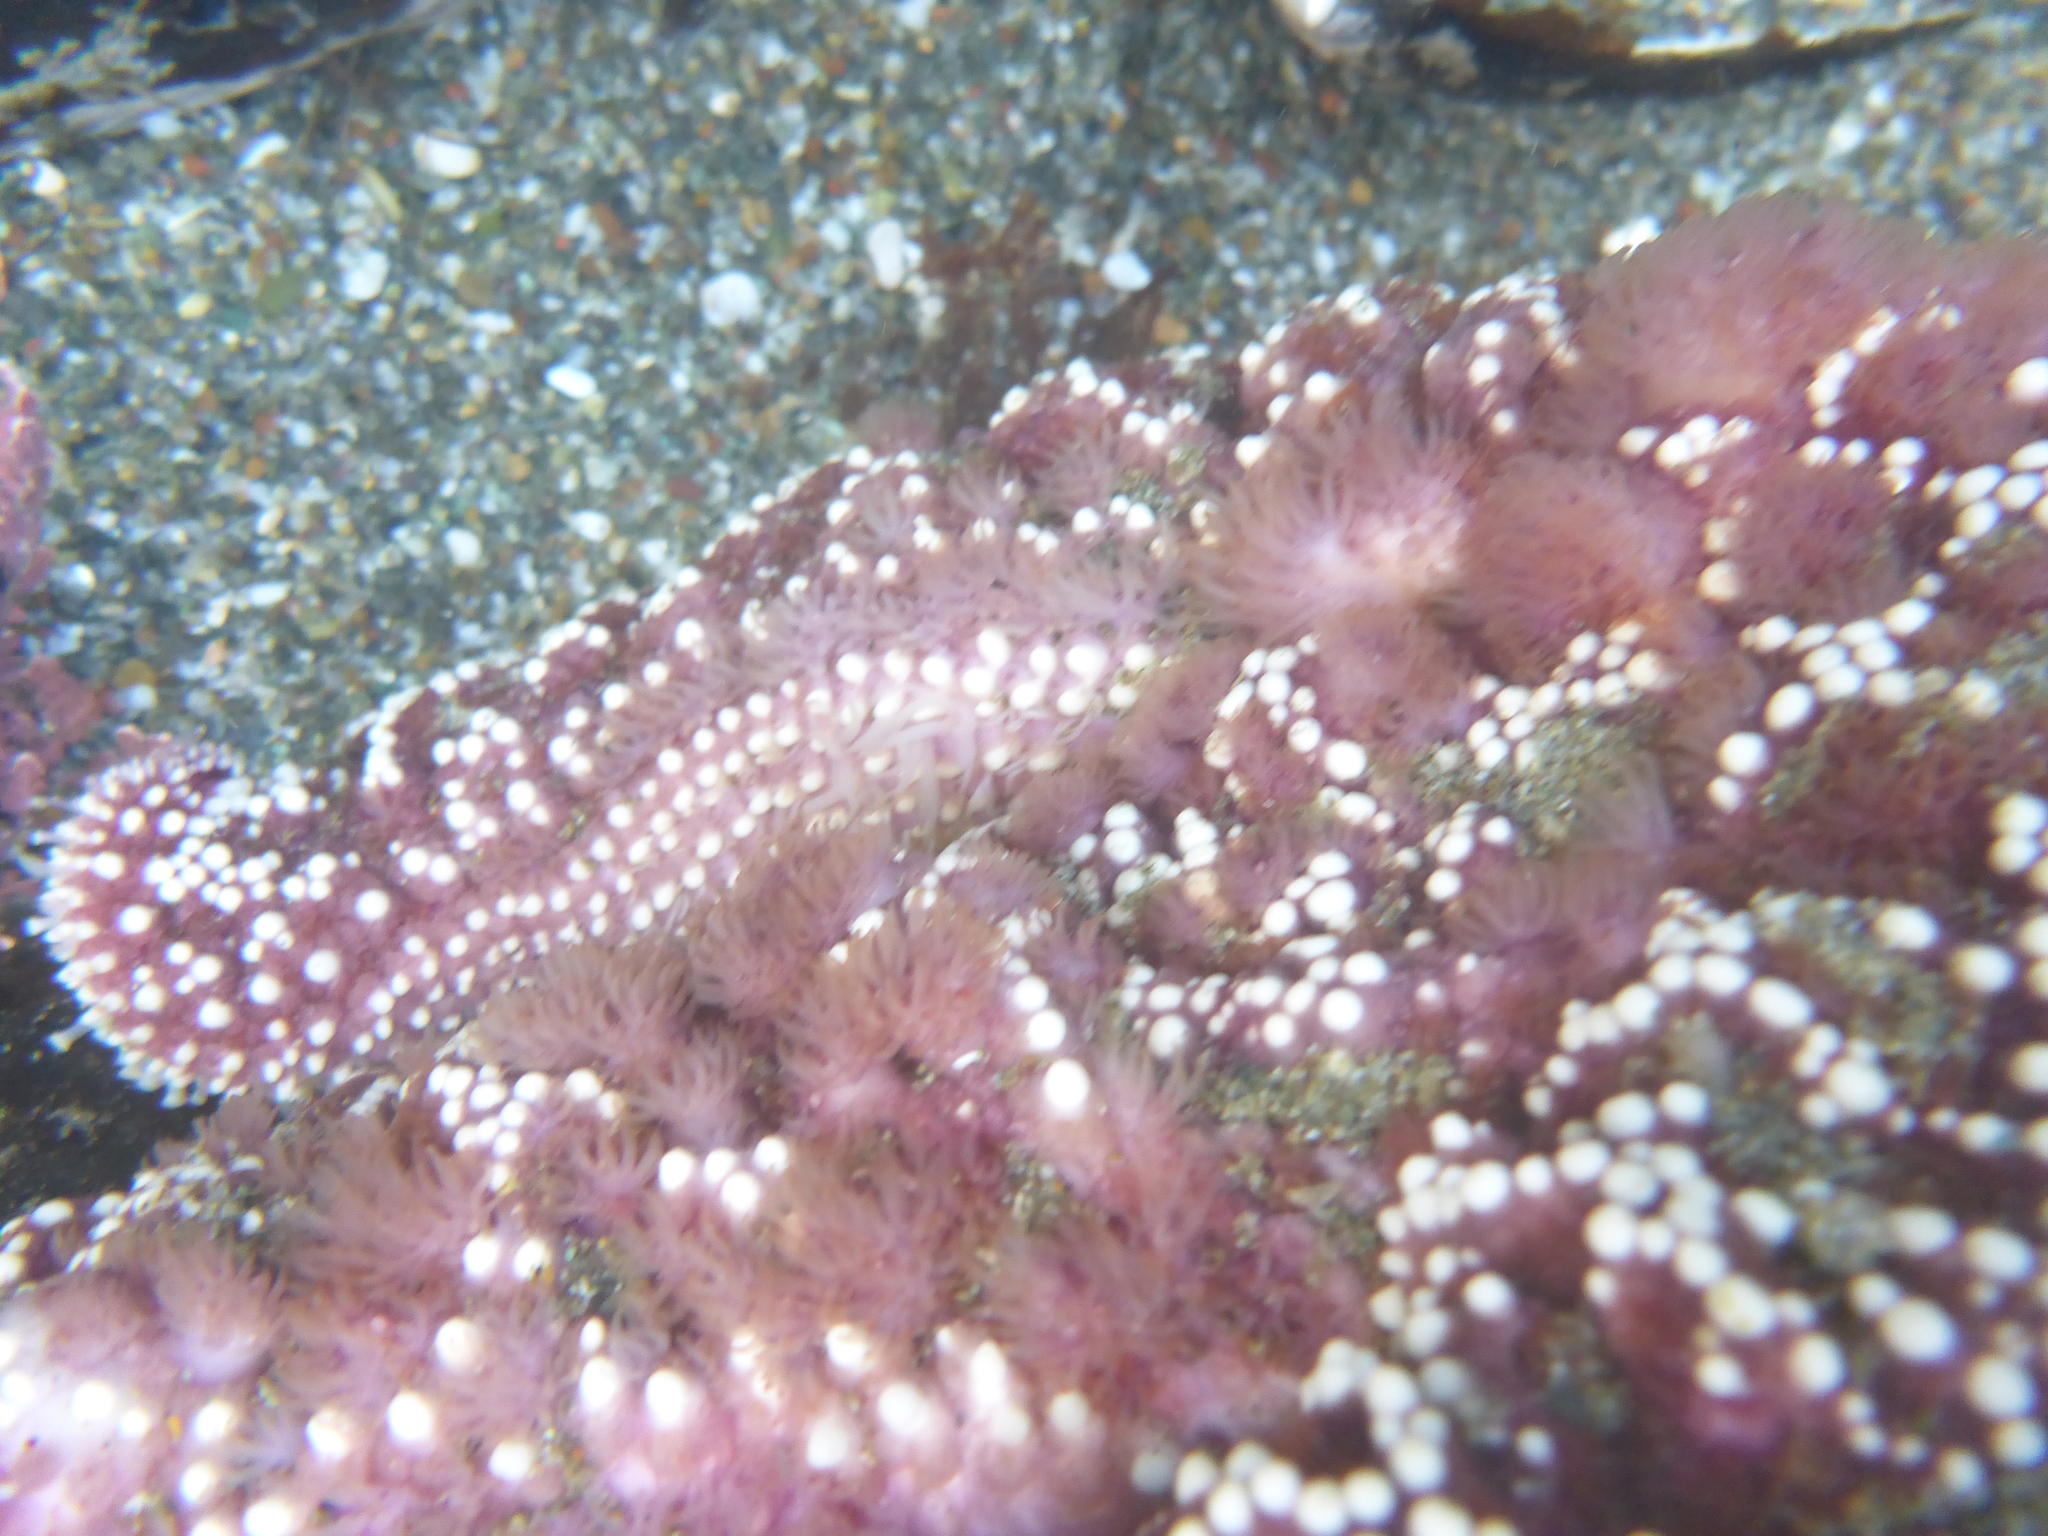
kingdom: Animalia
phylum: Echinodermata
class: Asteroidea
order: Forcipulatida
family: Asteriidae
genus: Pisaster
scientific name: Pisaster ochraceus
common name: Ochre stars
